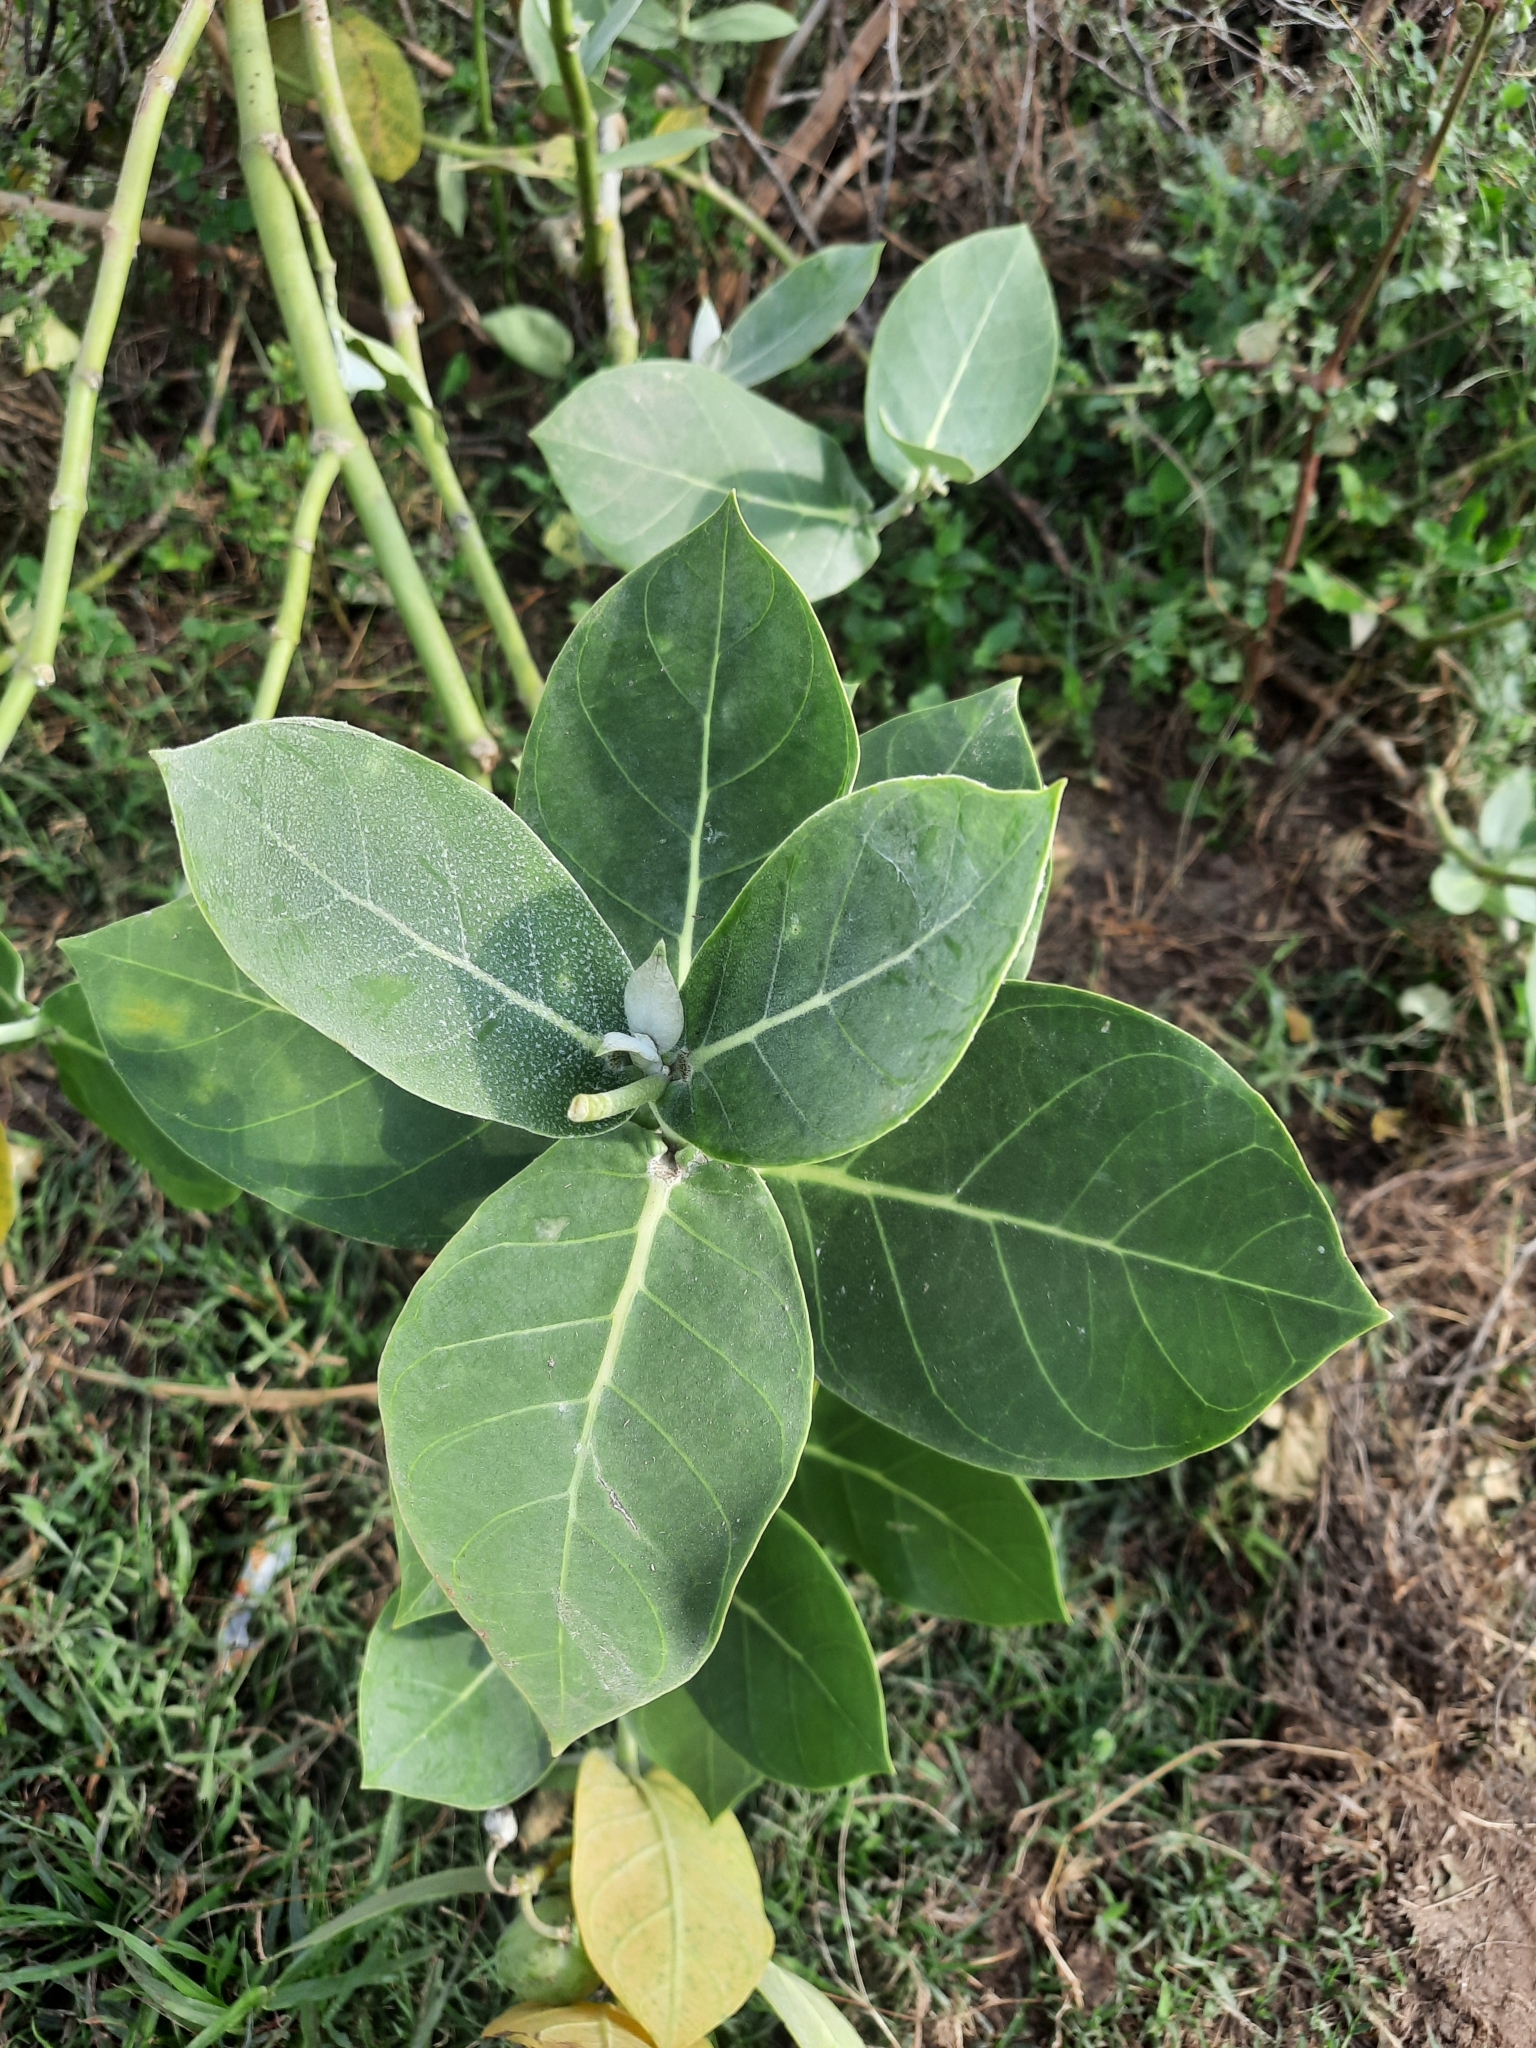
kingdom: Plantae
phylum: Tracheophyta
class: Magnoliopsida
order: Gentianales
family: Apocynaceae
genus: Calotropis
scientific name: Calotropis procera
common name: Roostertree
